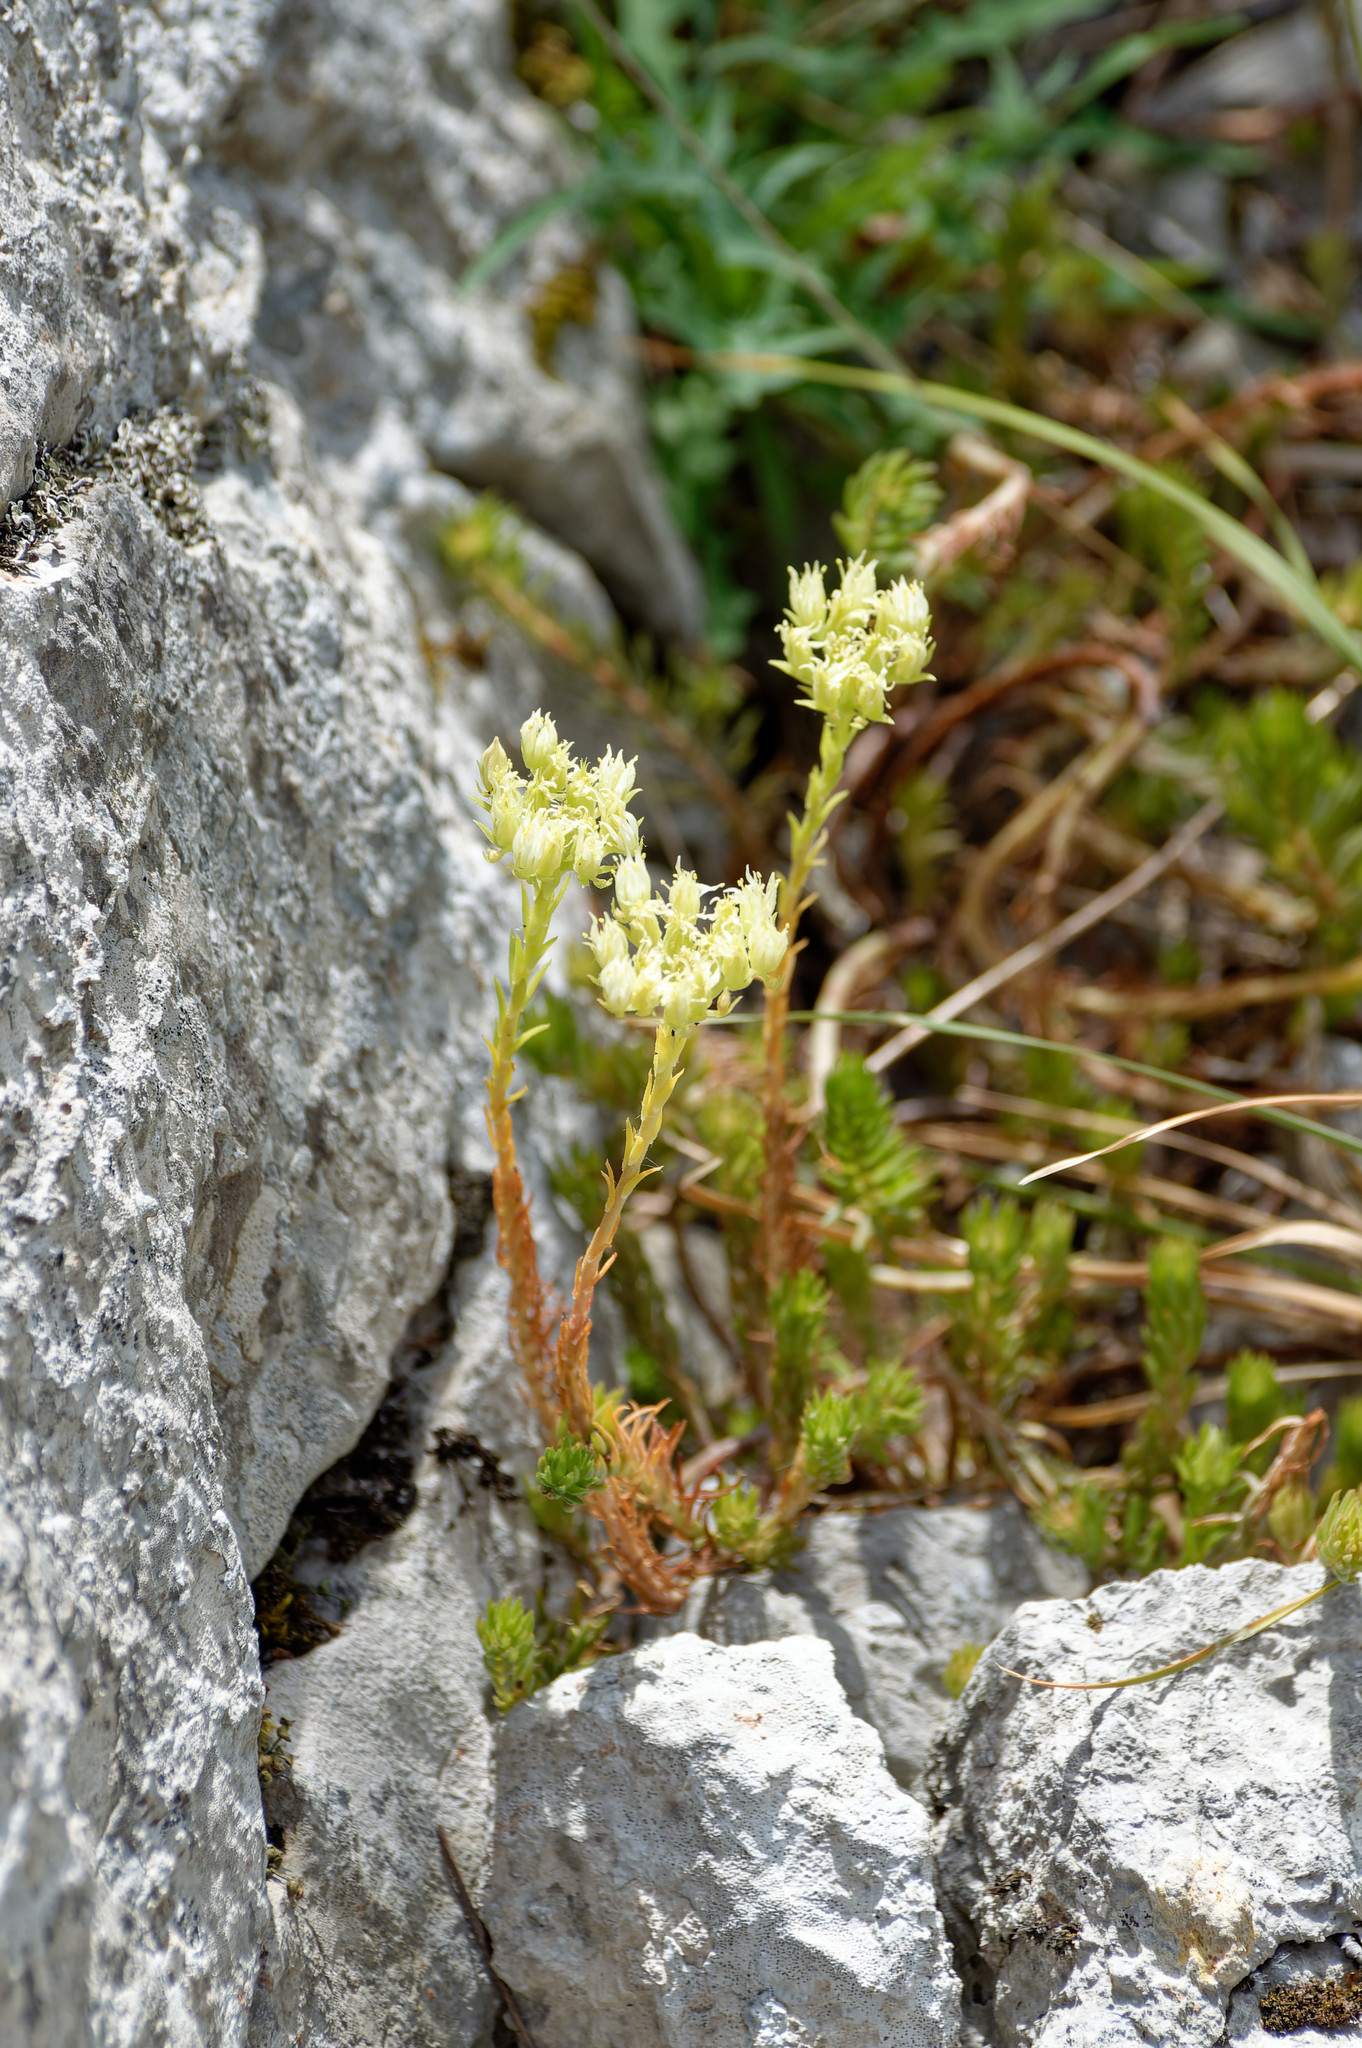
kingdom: Plantae
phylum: Tracheophyta
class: Magnoliopsida
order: Saxifragales
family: Crassulaceae
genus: Petrosedum
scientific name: Petrosedum ochroleucum
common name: European stonecrop
